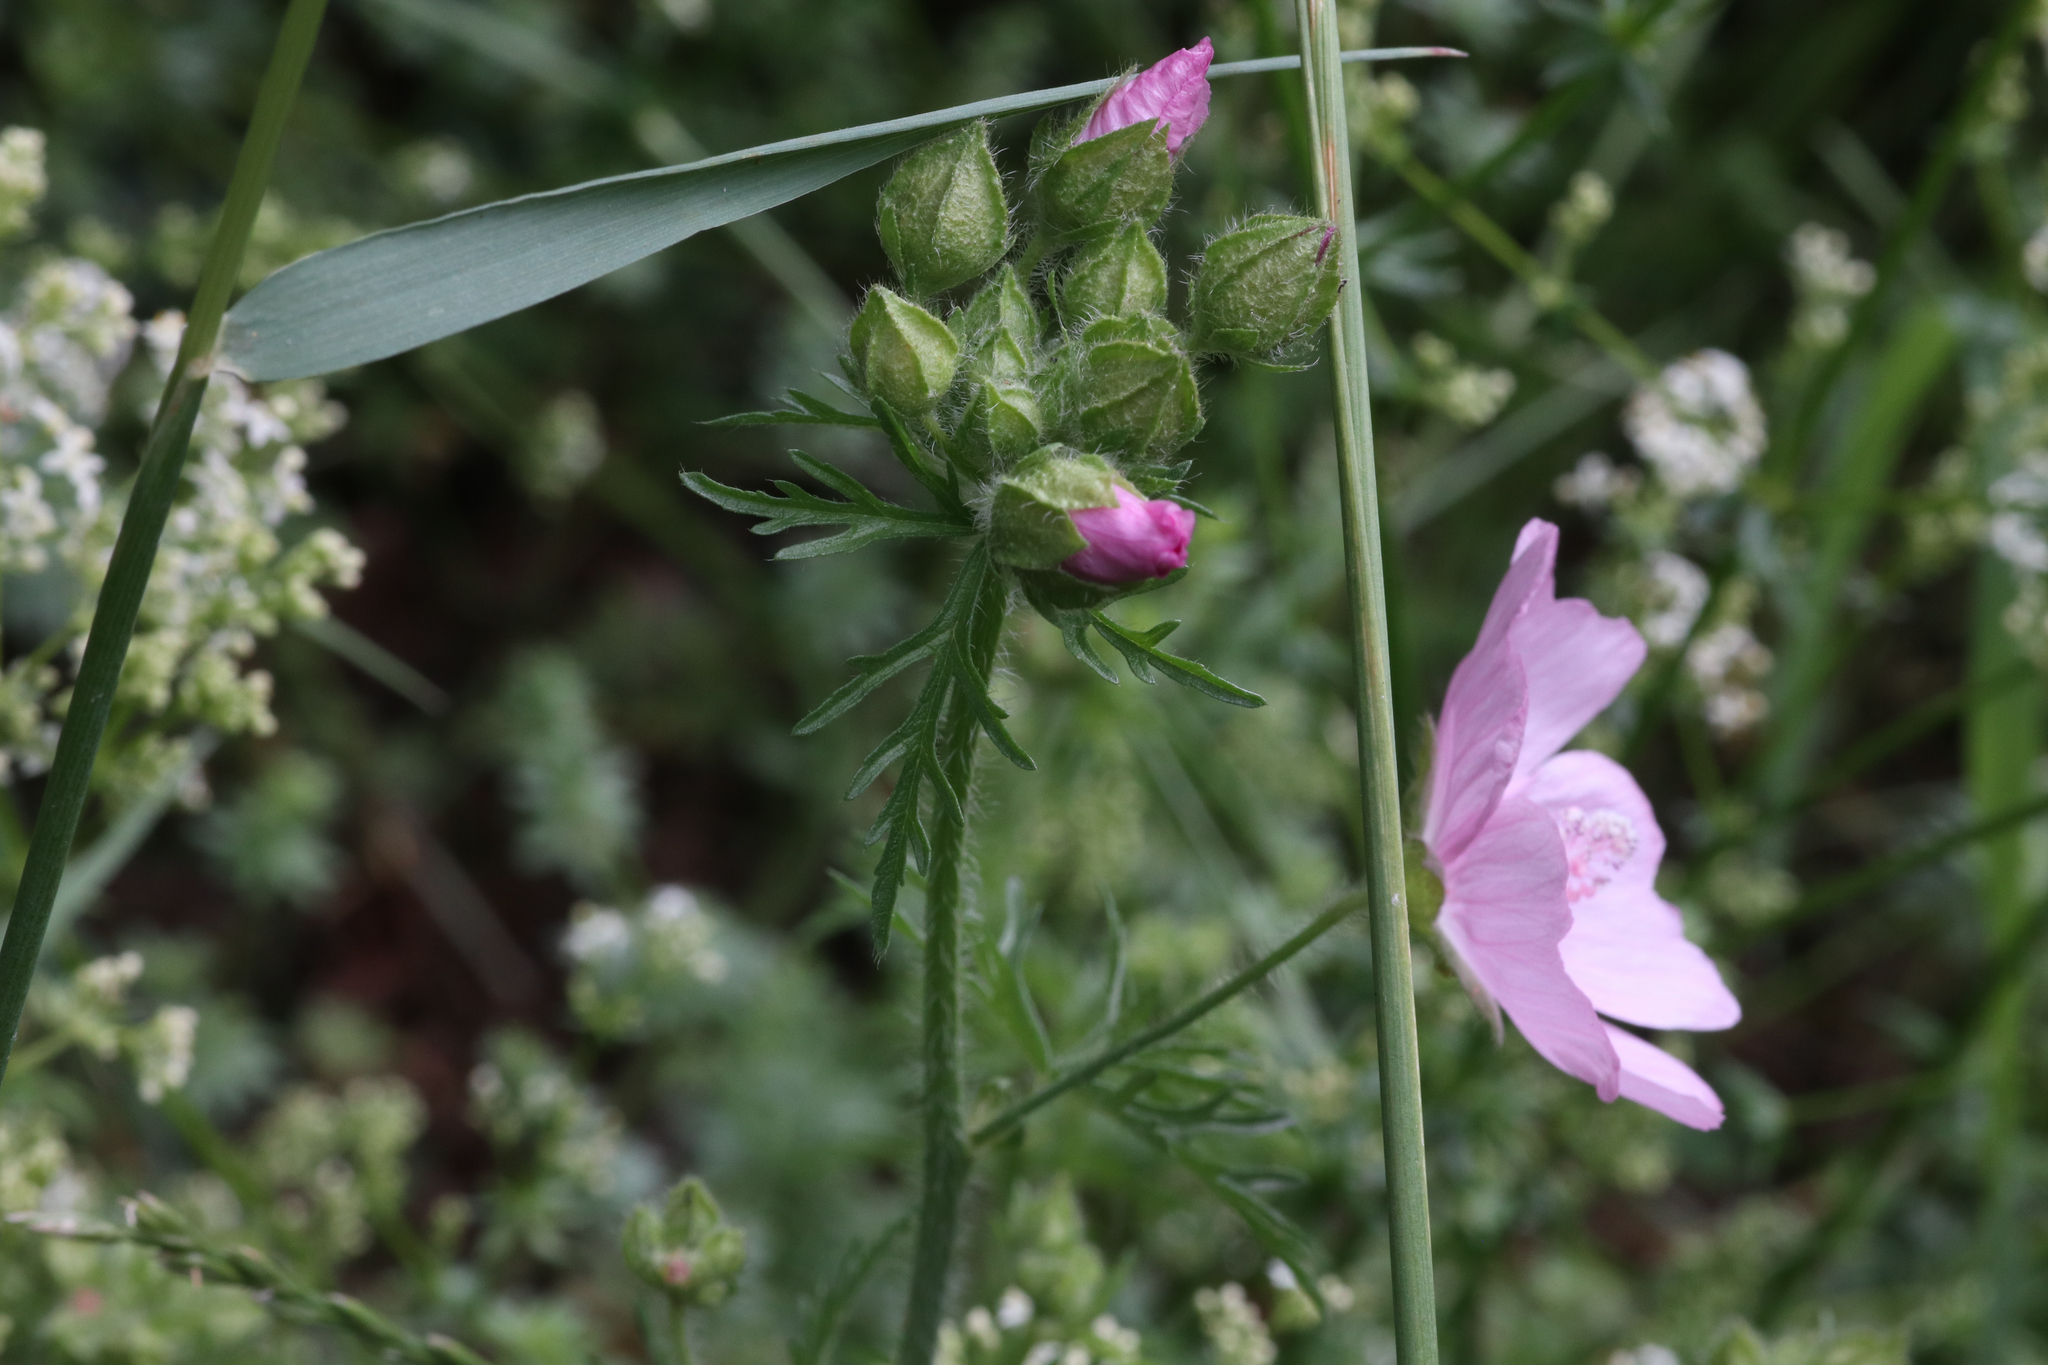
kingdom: Plantae
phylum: Tracheophyta
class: Magnoliopsida
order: Malvales
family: Malvaceae
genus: Malva
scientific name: Malva moschata
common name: Musk mallow
